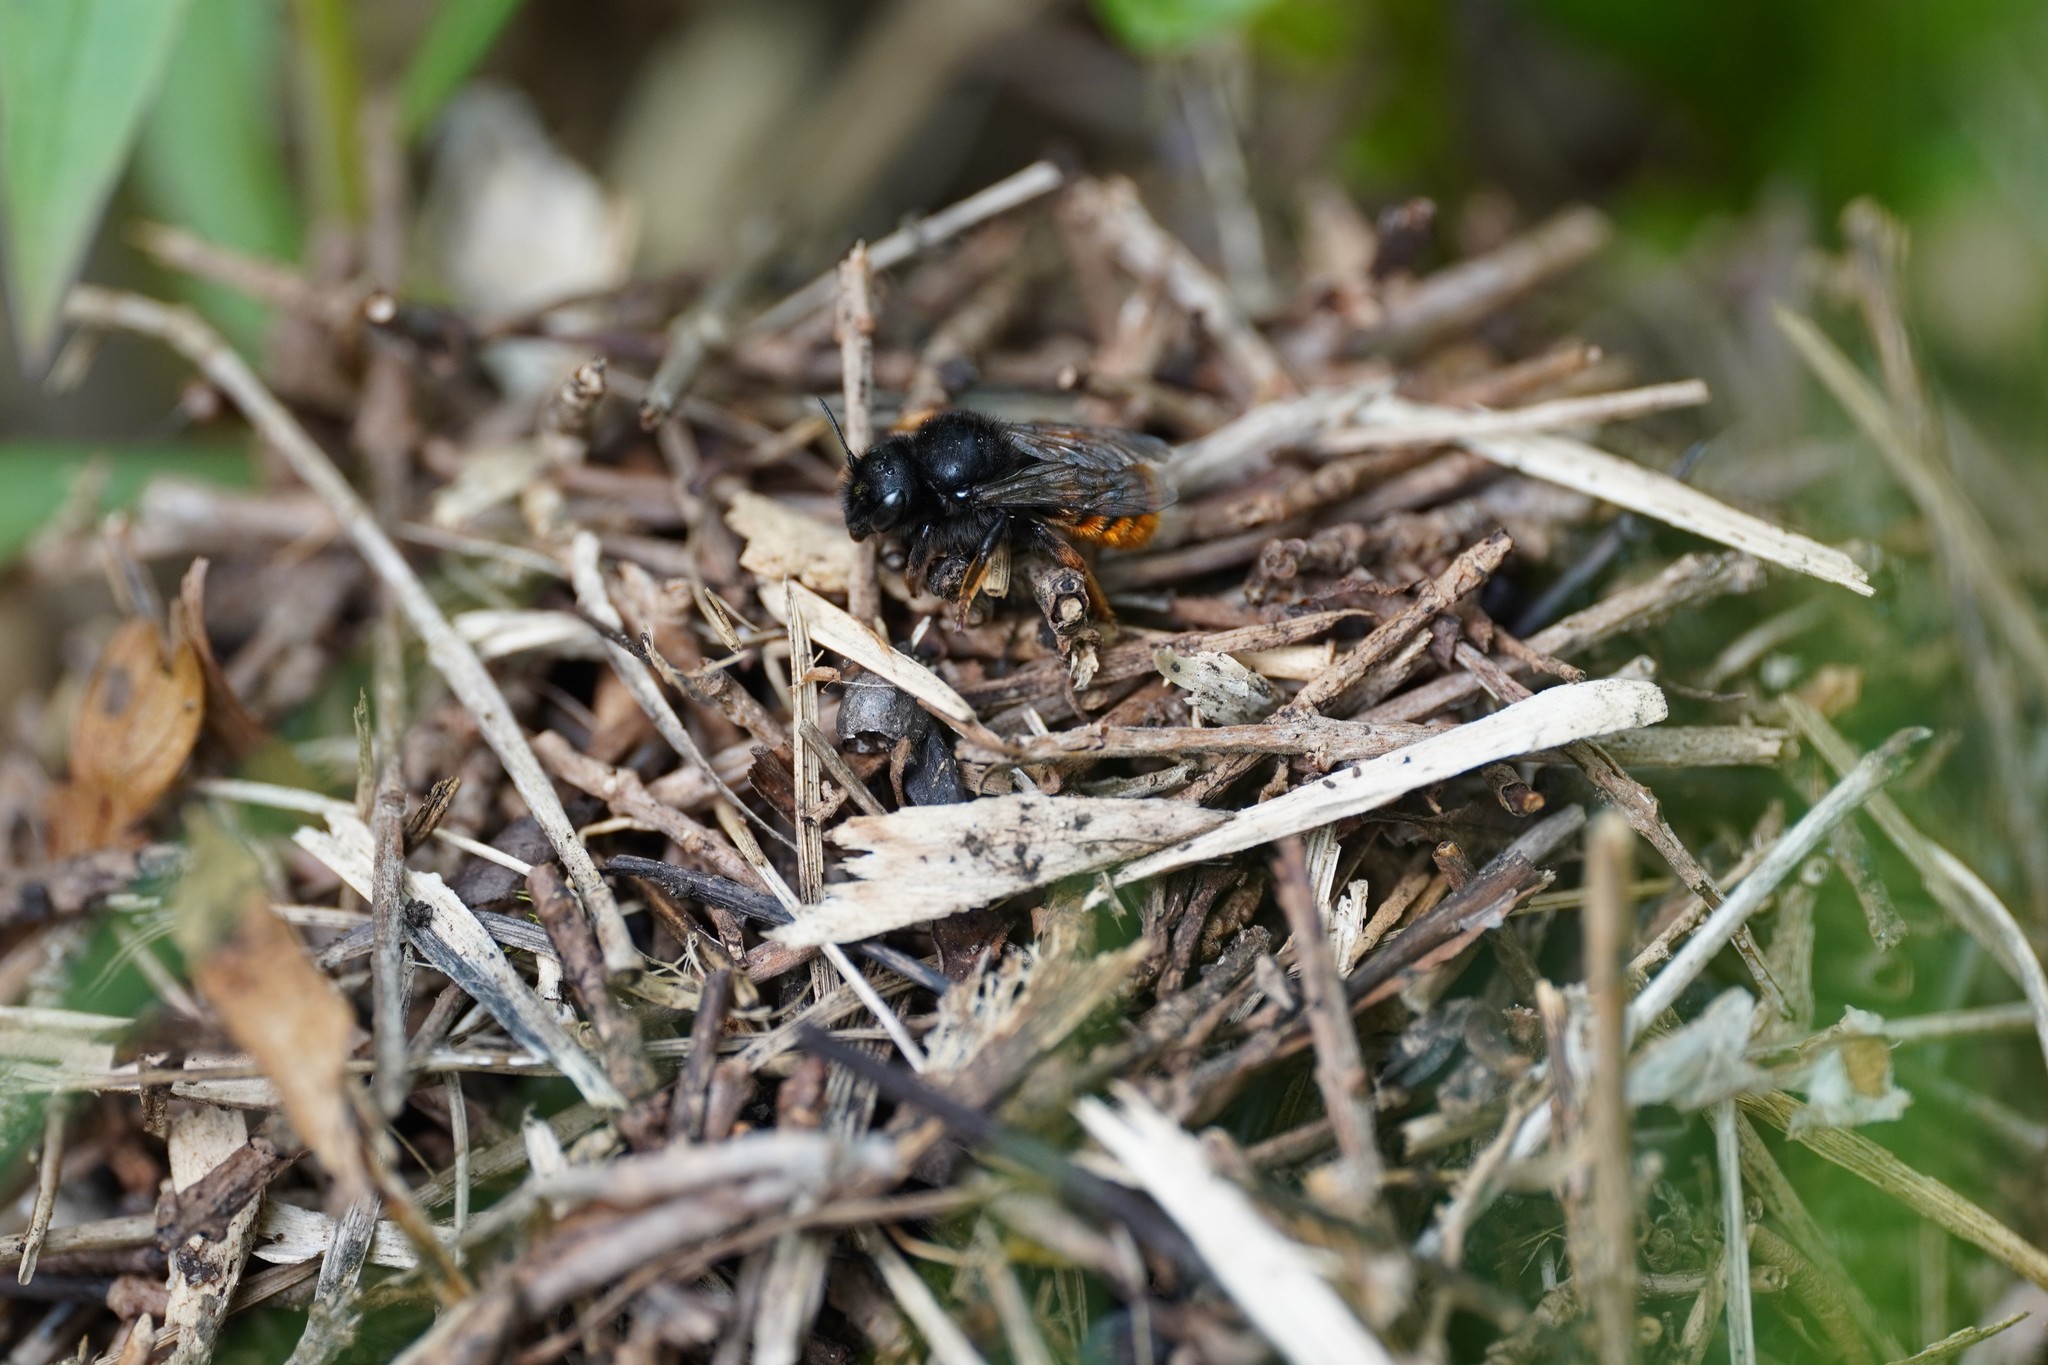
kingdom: Animalia
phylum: Arthropoda
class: Insecta
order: Hymenoptera
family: Megachilidae
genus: Osmia
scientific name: Osmia bicolor
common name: Red-tailed mason bee
